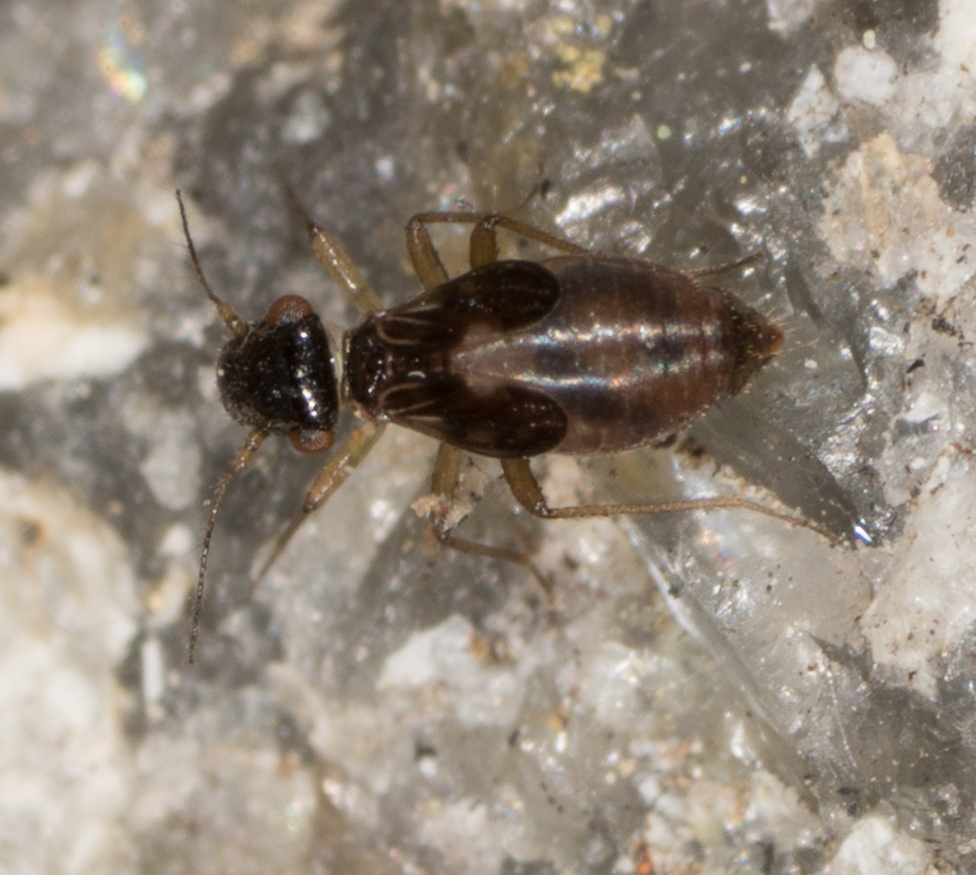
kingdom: Animalia
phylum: Arthropoda
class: Insecta
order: Psocodea
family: Elipsocidae
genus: Propsocus
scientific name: Propsocus pulchripennis
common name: Bark louse
